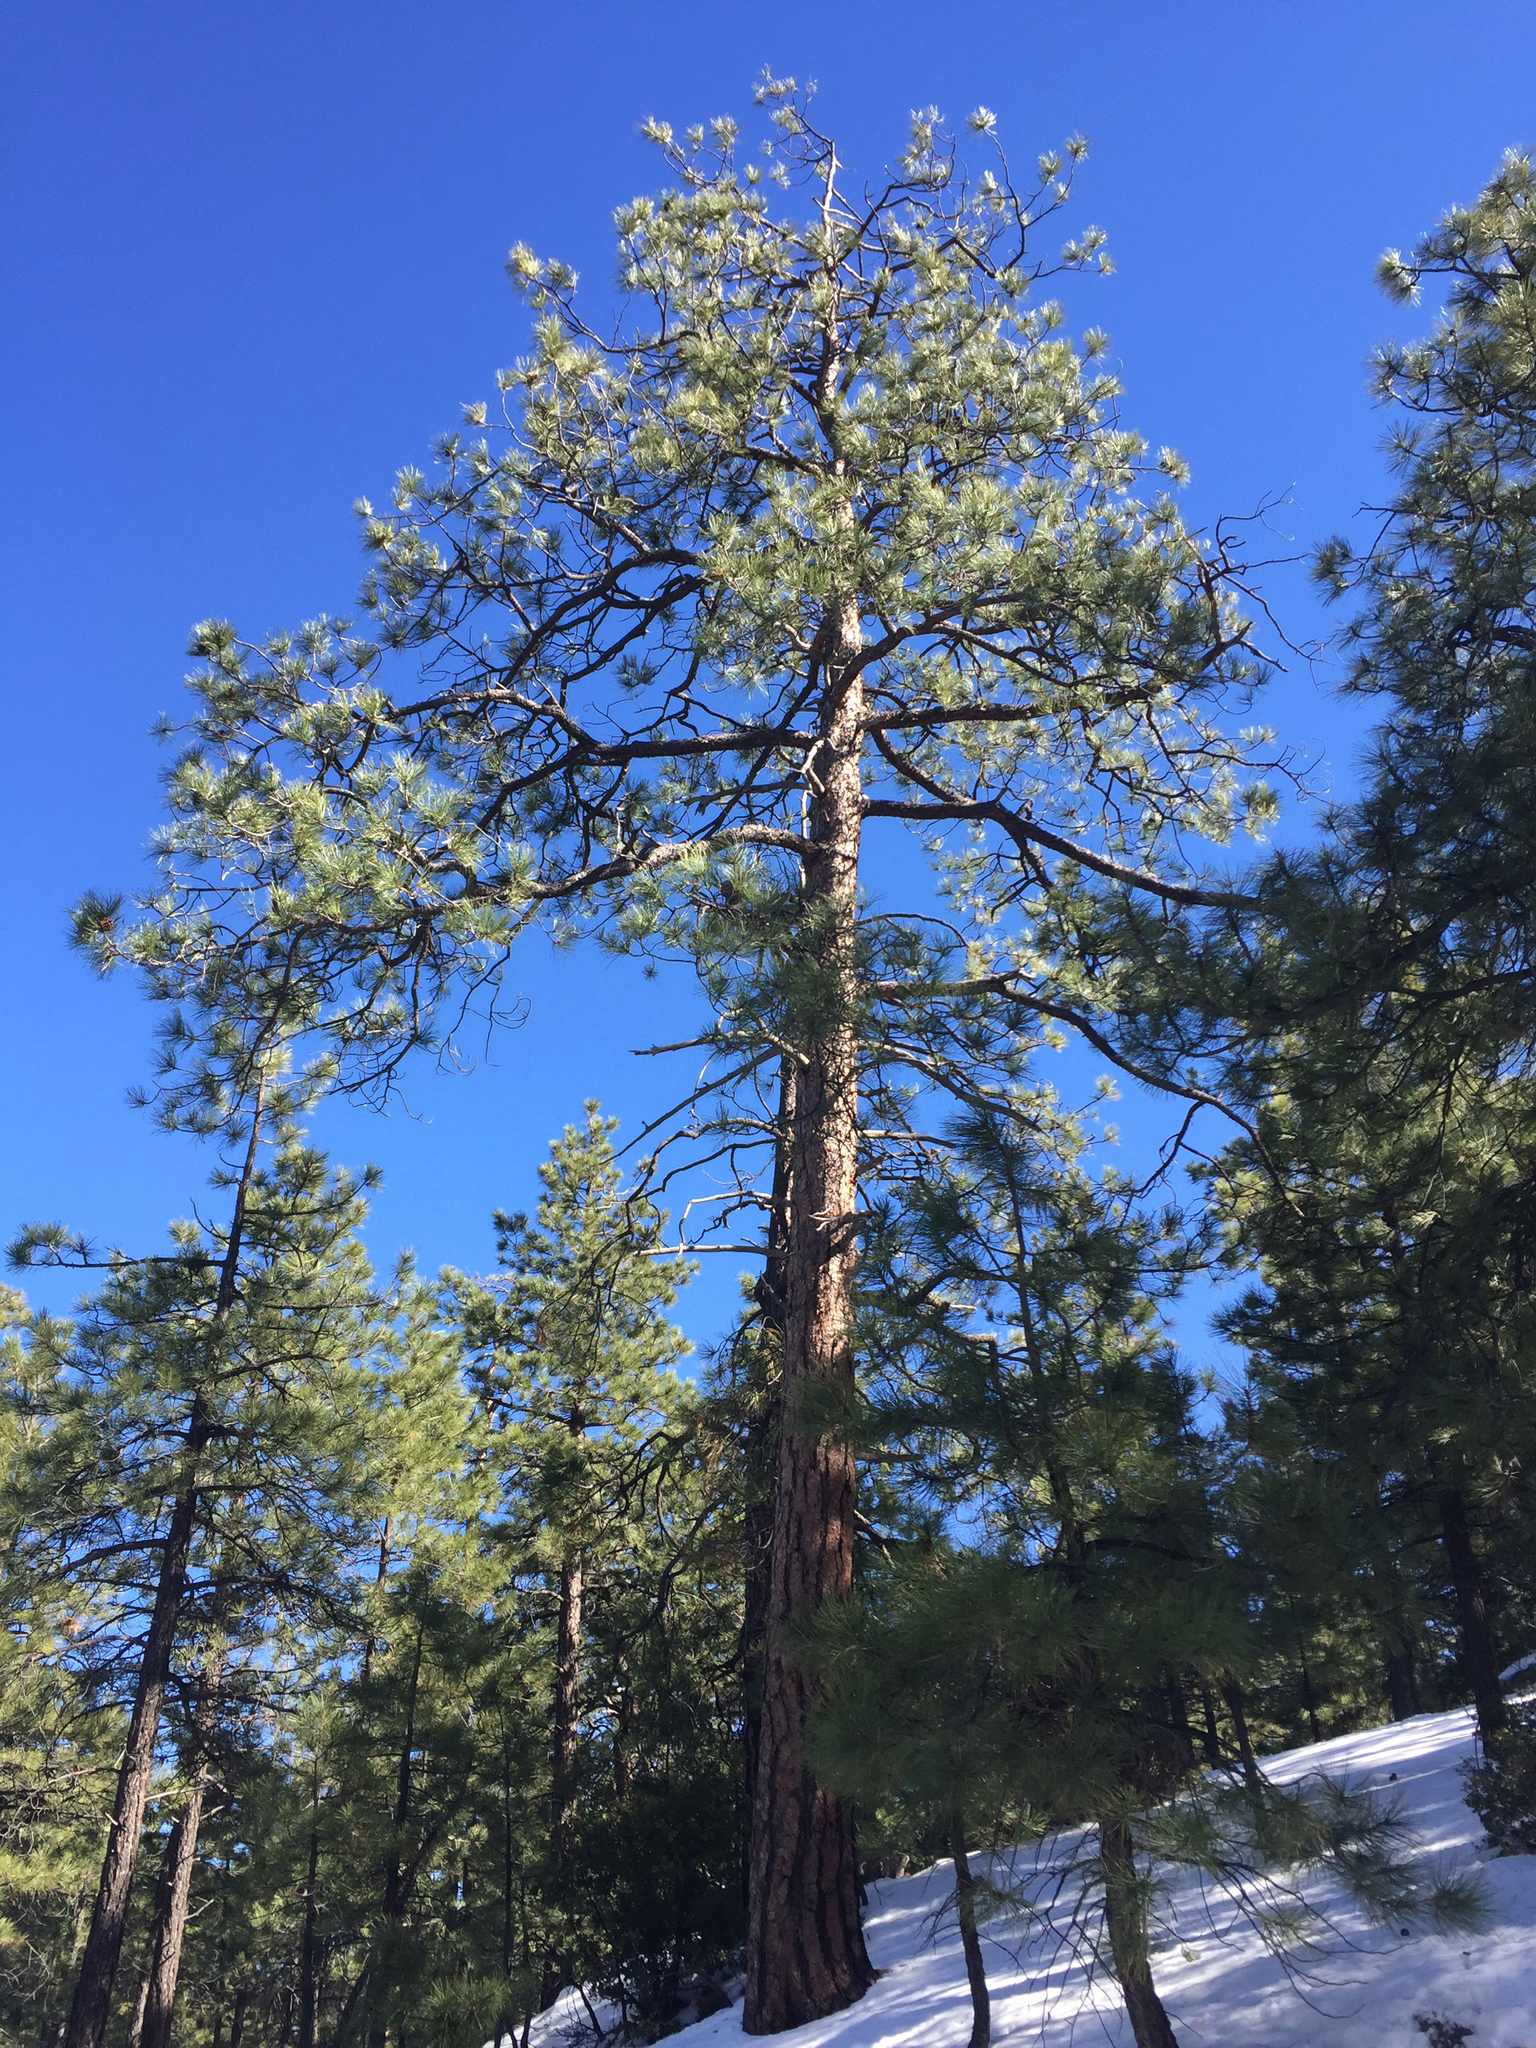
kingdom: Plantae
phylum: Tracheophyta
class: Pinopsida
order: Pinales
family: Pinaceae
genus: Pinus
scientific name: Pinus ponderosa
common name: Western yellow-pine
